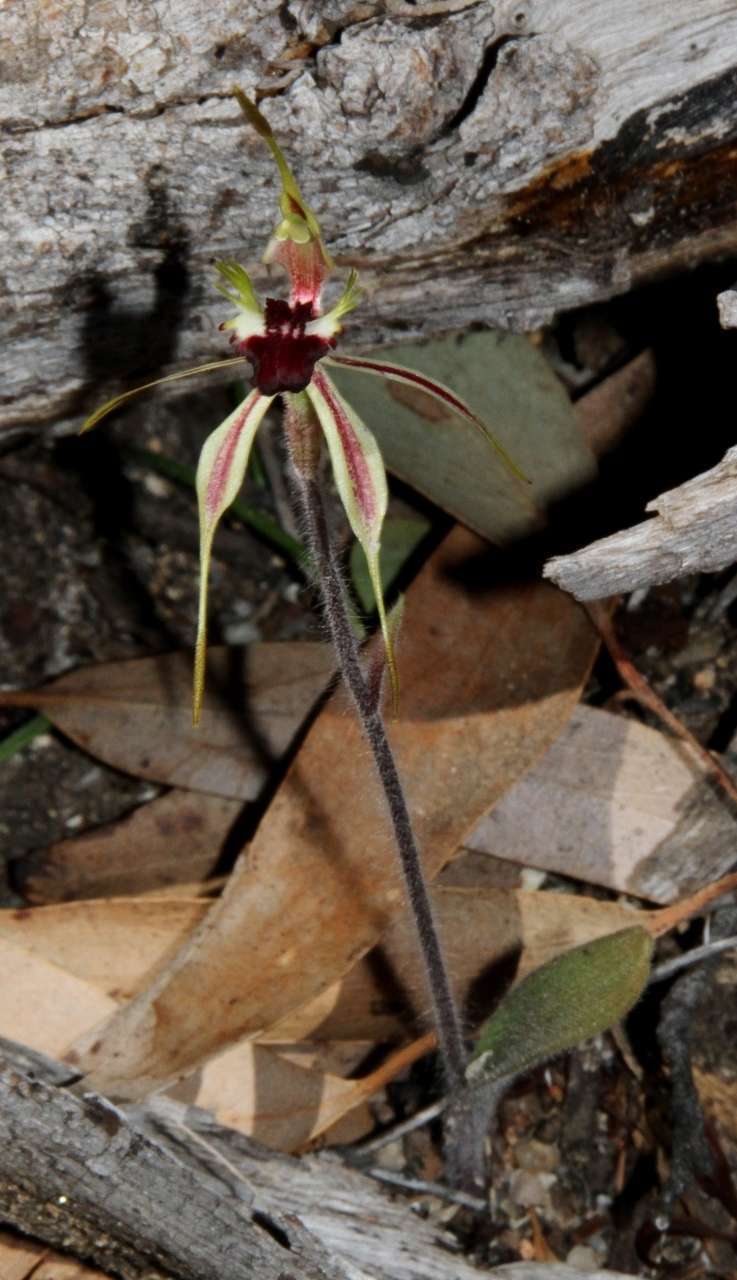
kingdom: Plantae
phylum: Tracheophyta
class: Liliopsida
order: Asparagales
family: Orchidaceae
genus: Caladenia
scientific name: Caladenia parva
